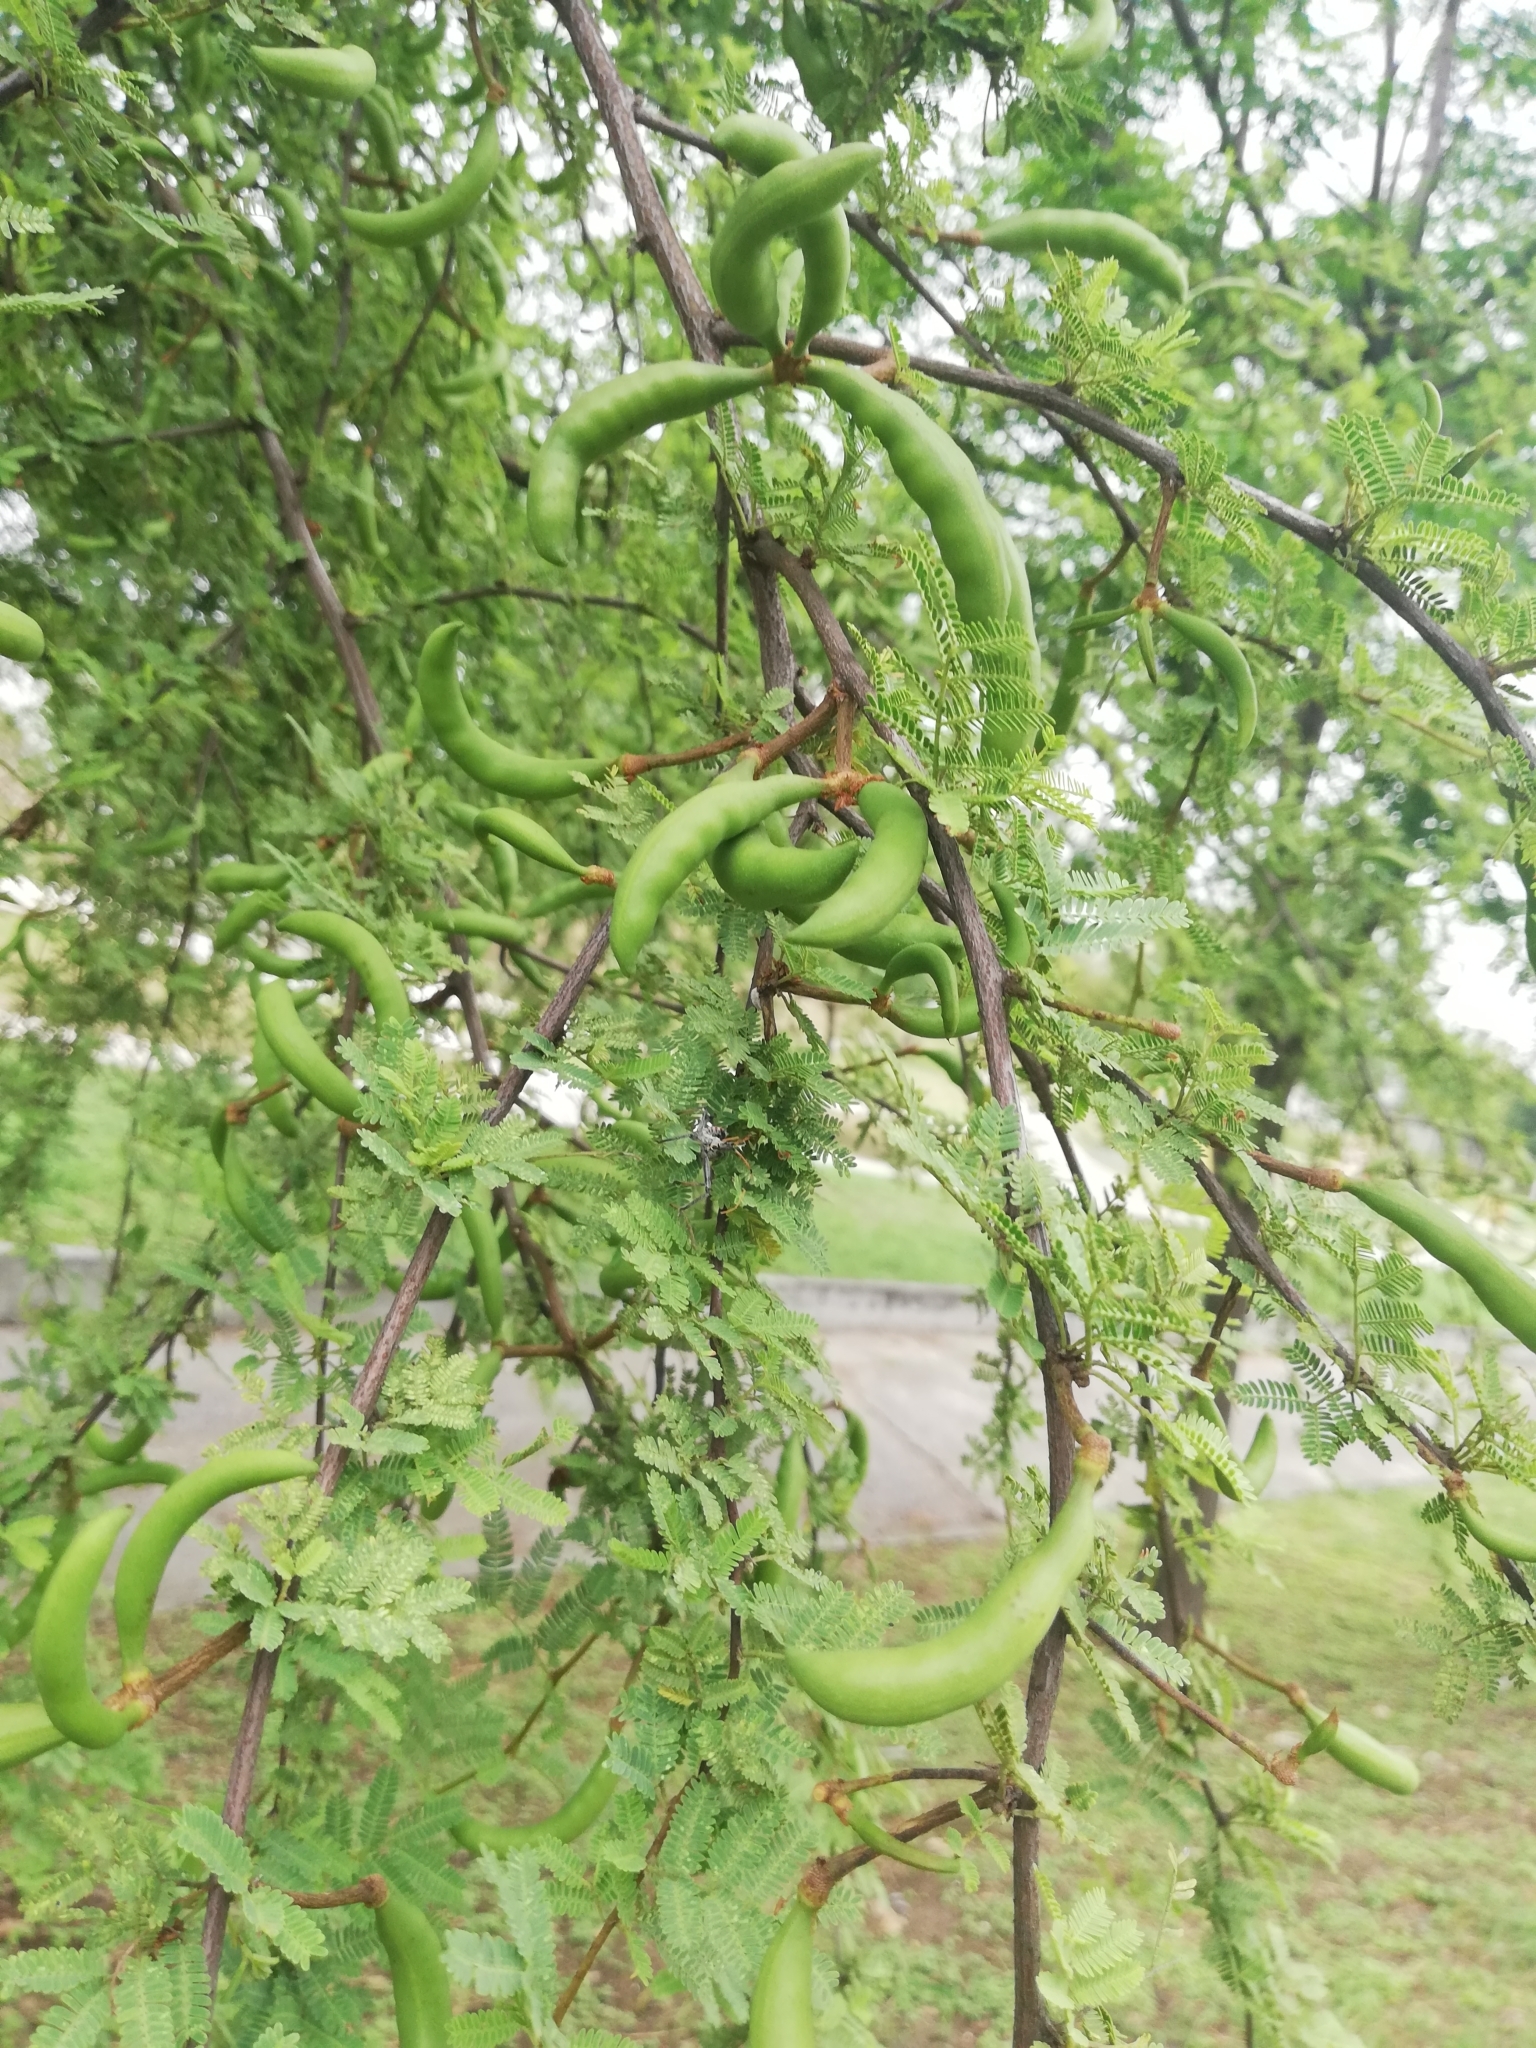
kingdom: Plantae
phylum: Tracheophyta
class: Magnoliopsida
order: Fabales
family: Fabaceae
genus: Vachellia
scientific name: Vachellia farnesiana
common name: Sweet acacia
